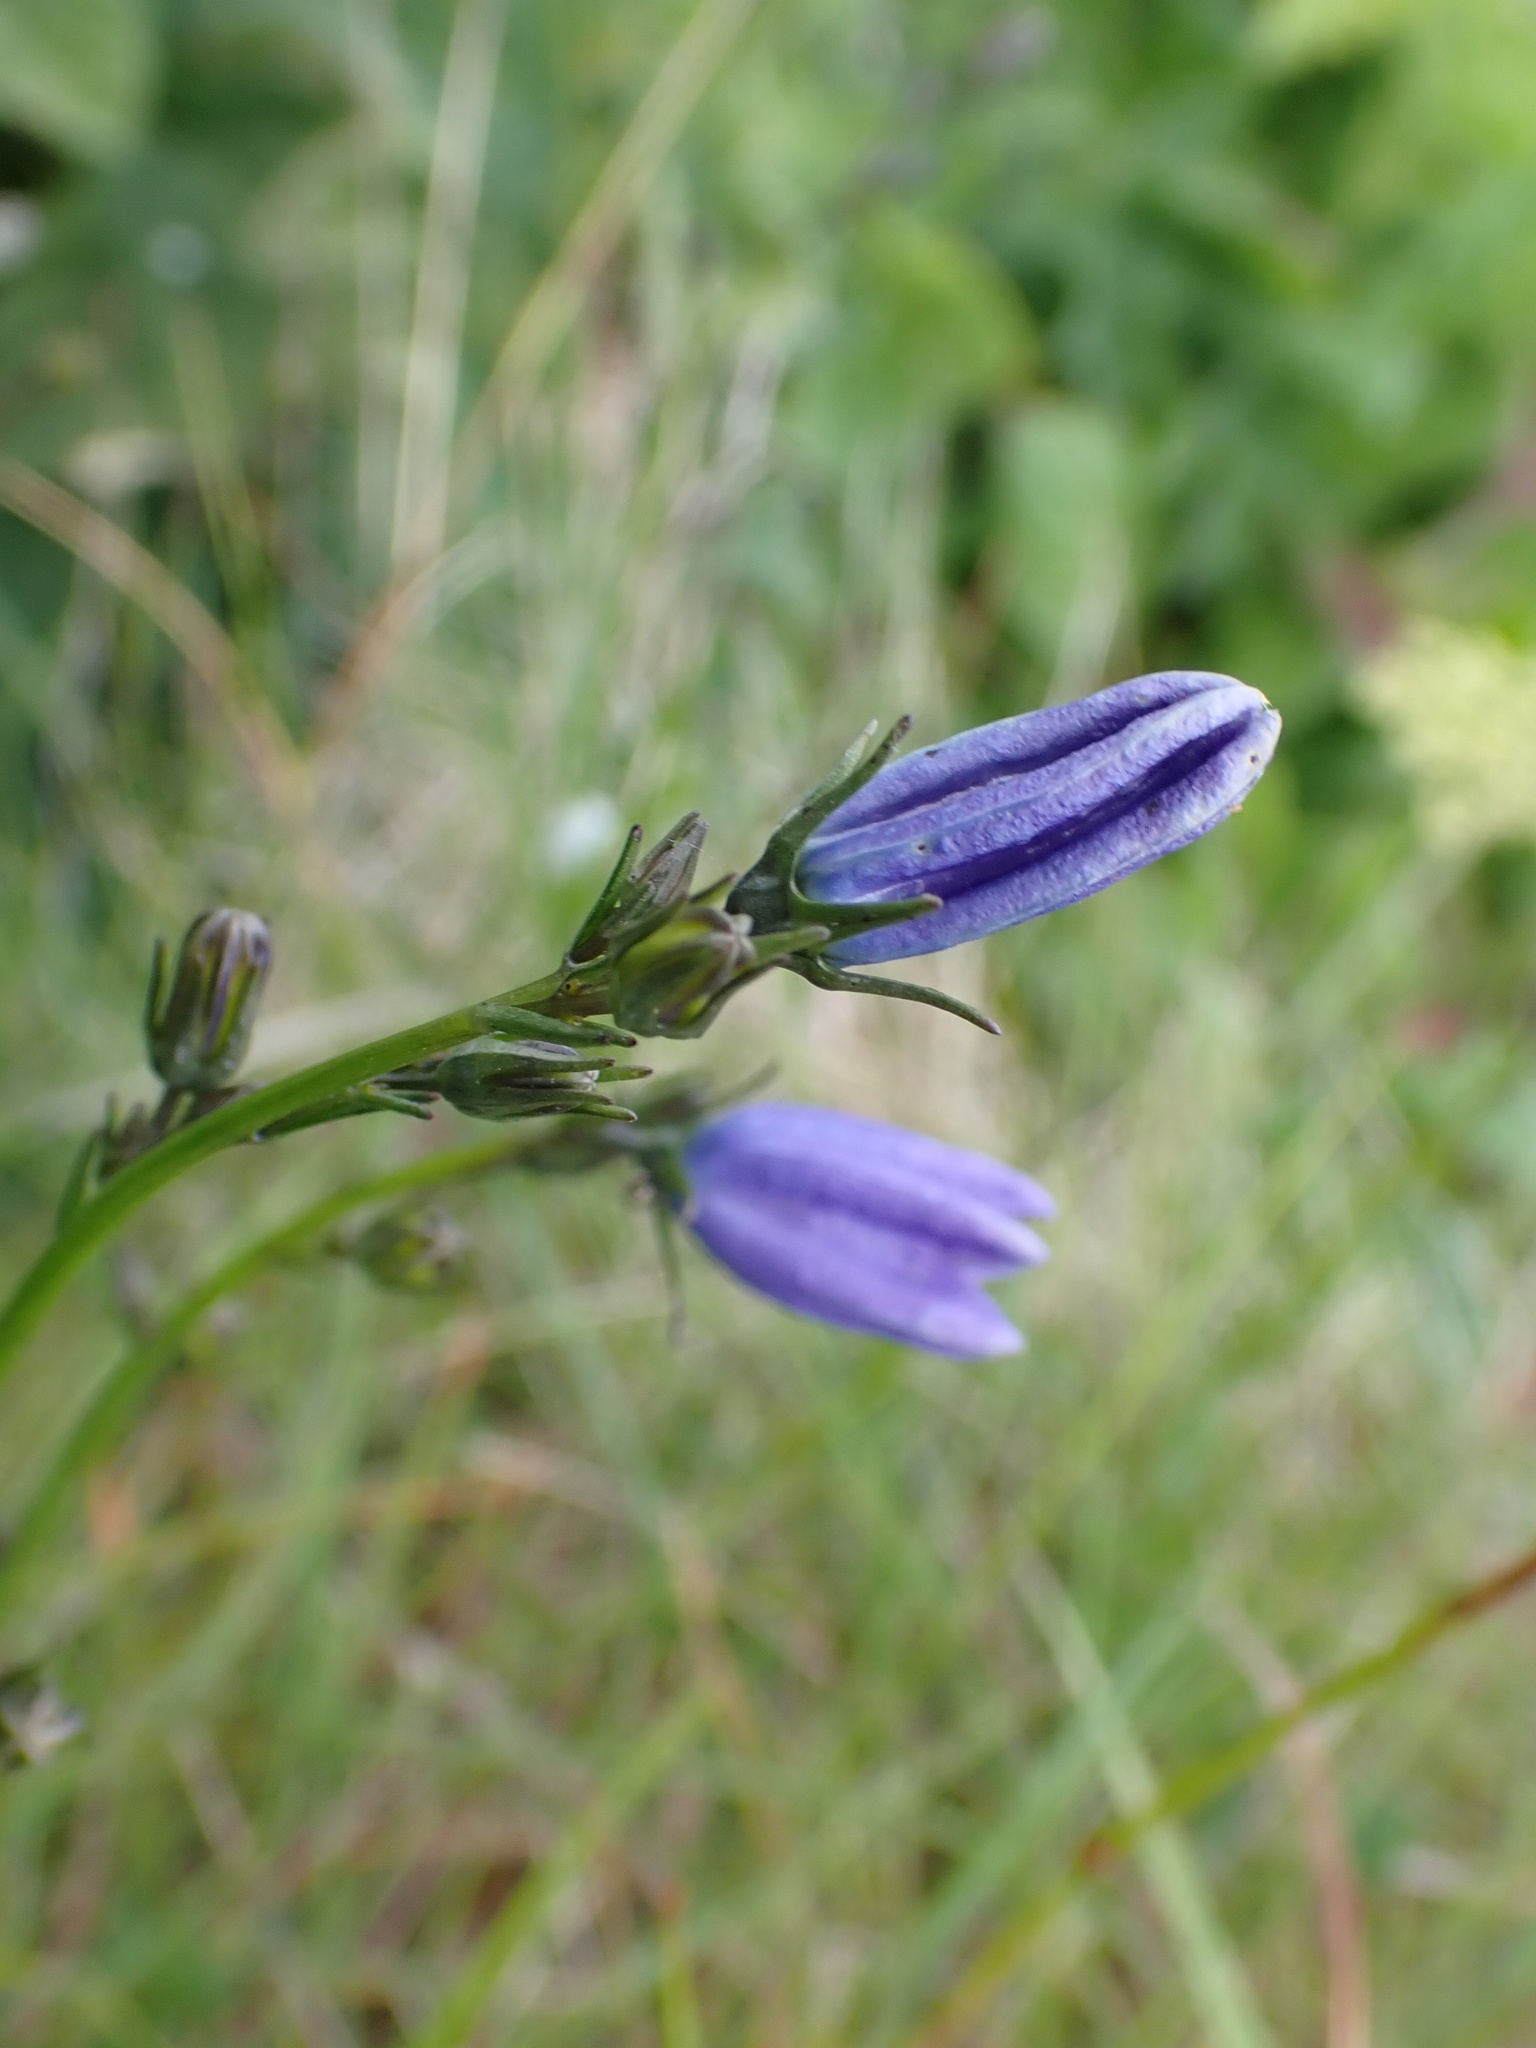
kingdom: Plantae
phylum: Tracheophyta
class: Magnoliopsida
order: Asterales
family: Campanulaceae
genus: Campanula
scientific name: Campanula rotundifolia
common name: Harebell
